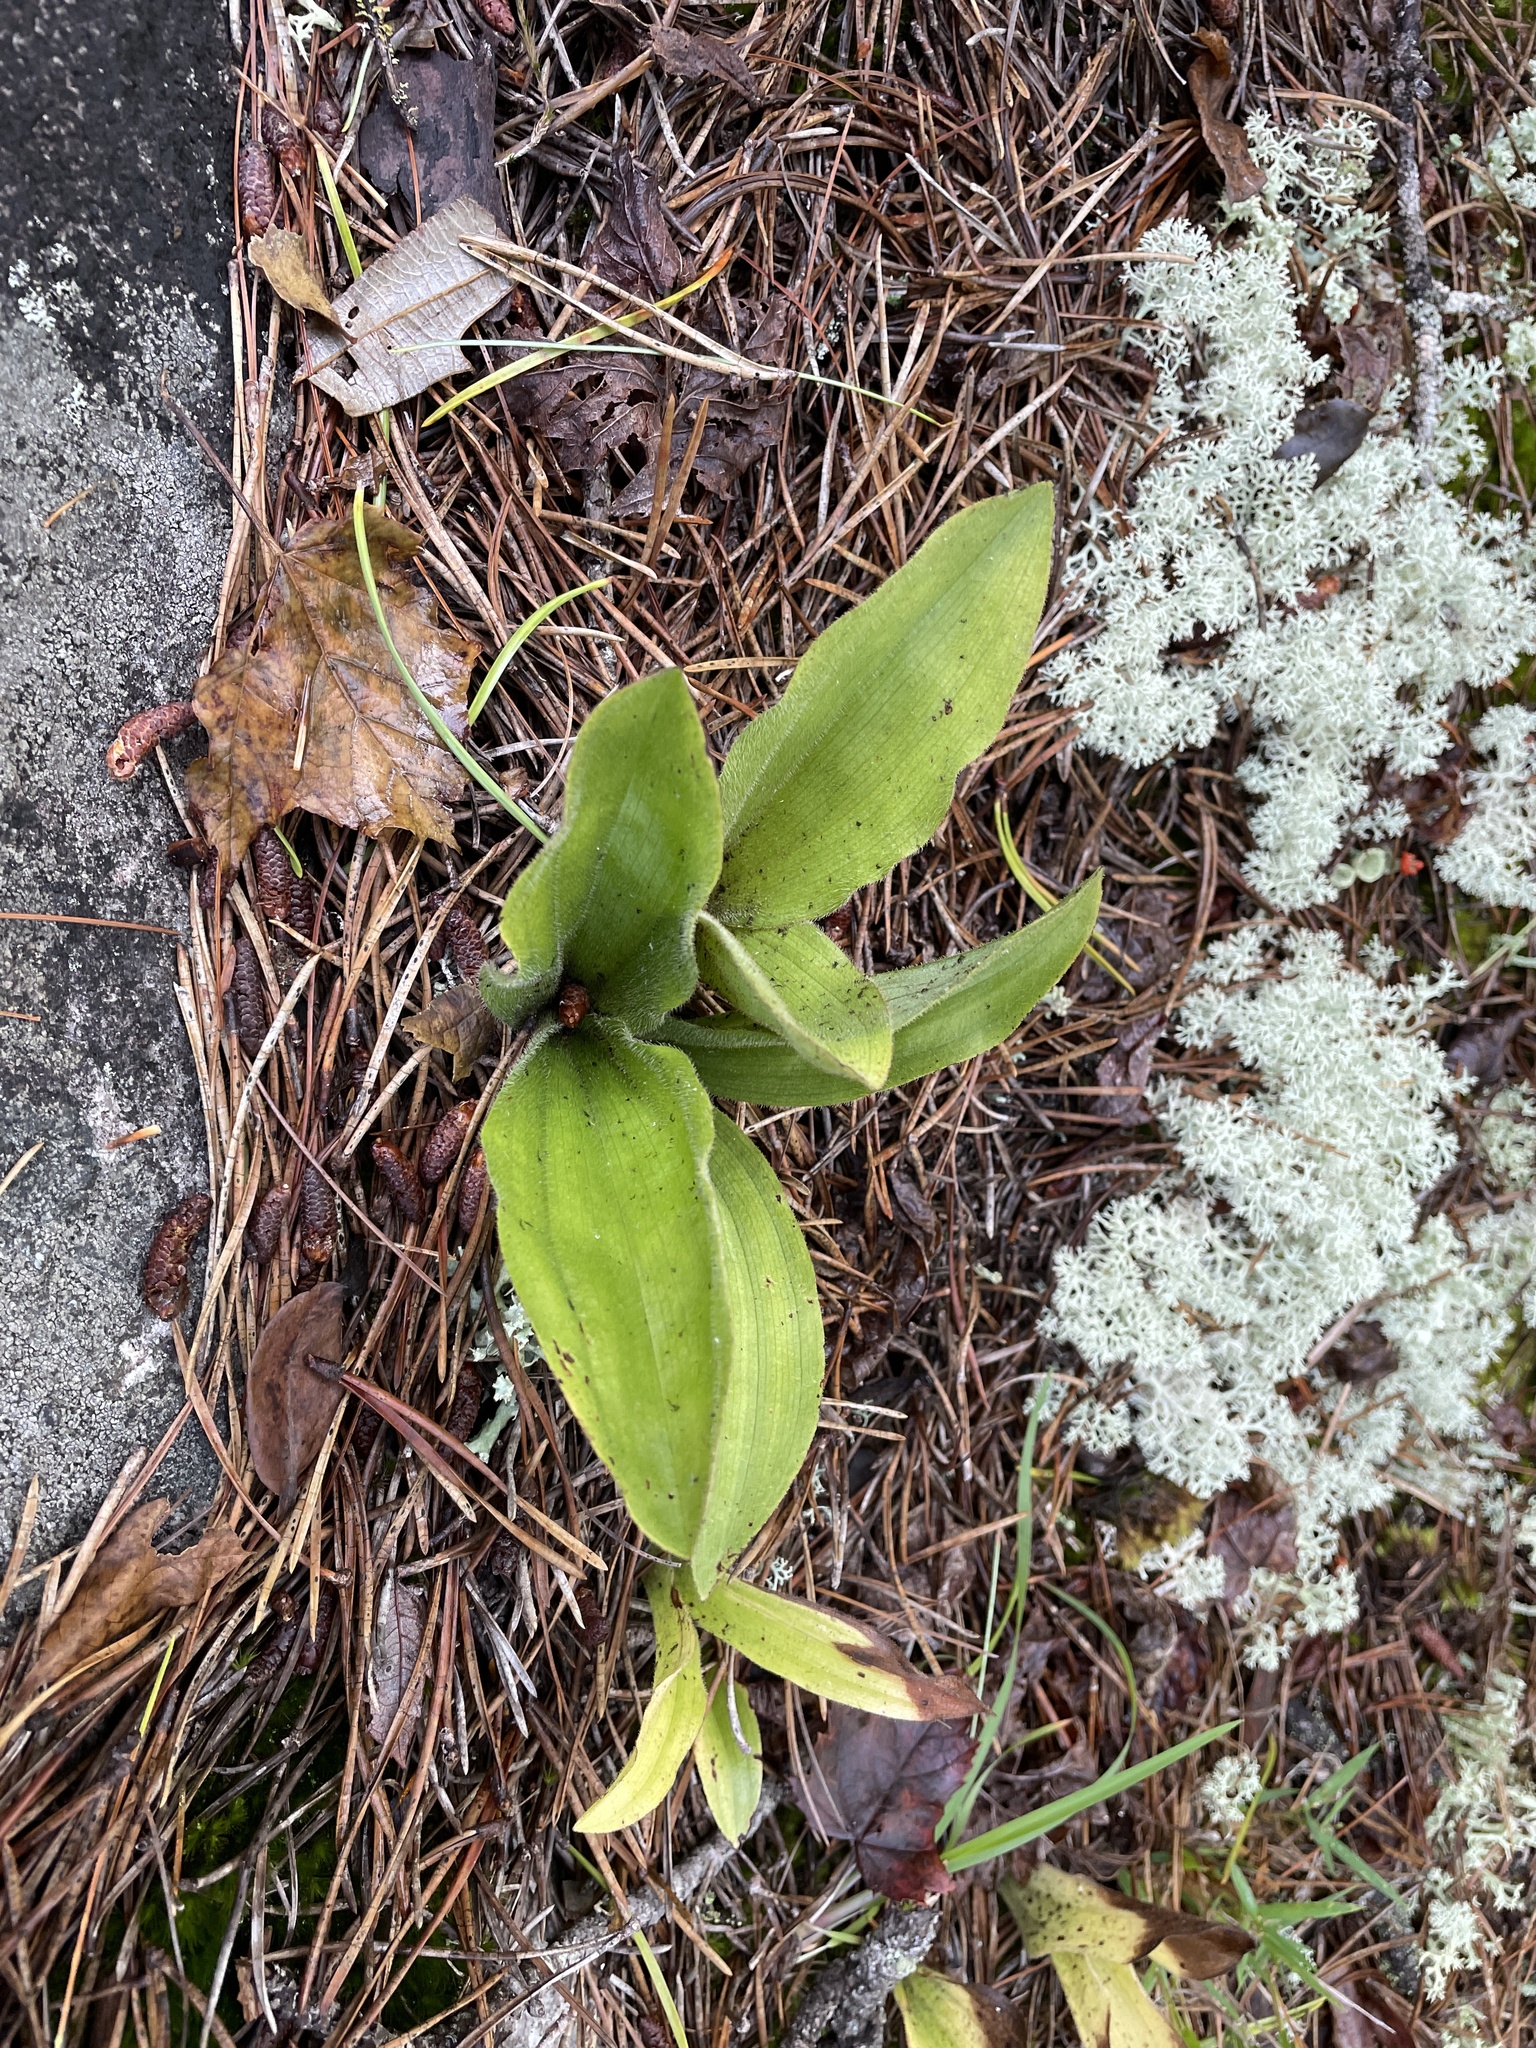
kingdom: Plantae
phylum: Tracheophyta
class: Liliopsida
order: Asparagales
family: Orchidaceae
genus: Cypripedium
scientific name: Cypripedium acaule
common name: Pink lady's-slipper
